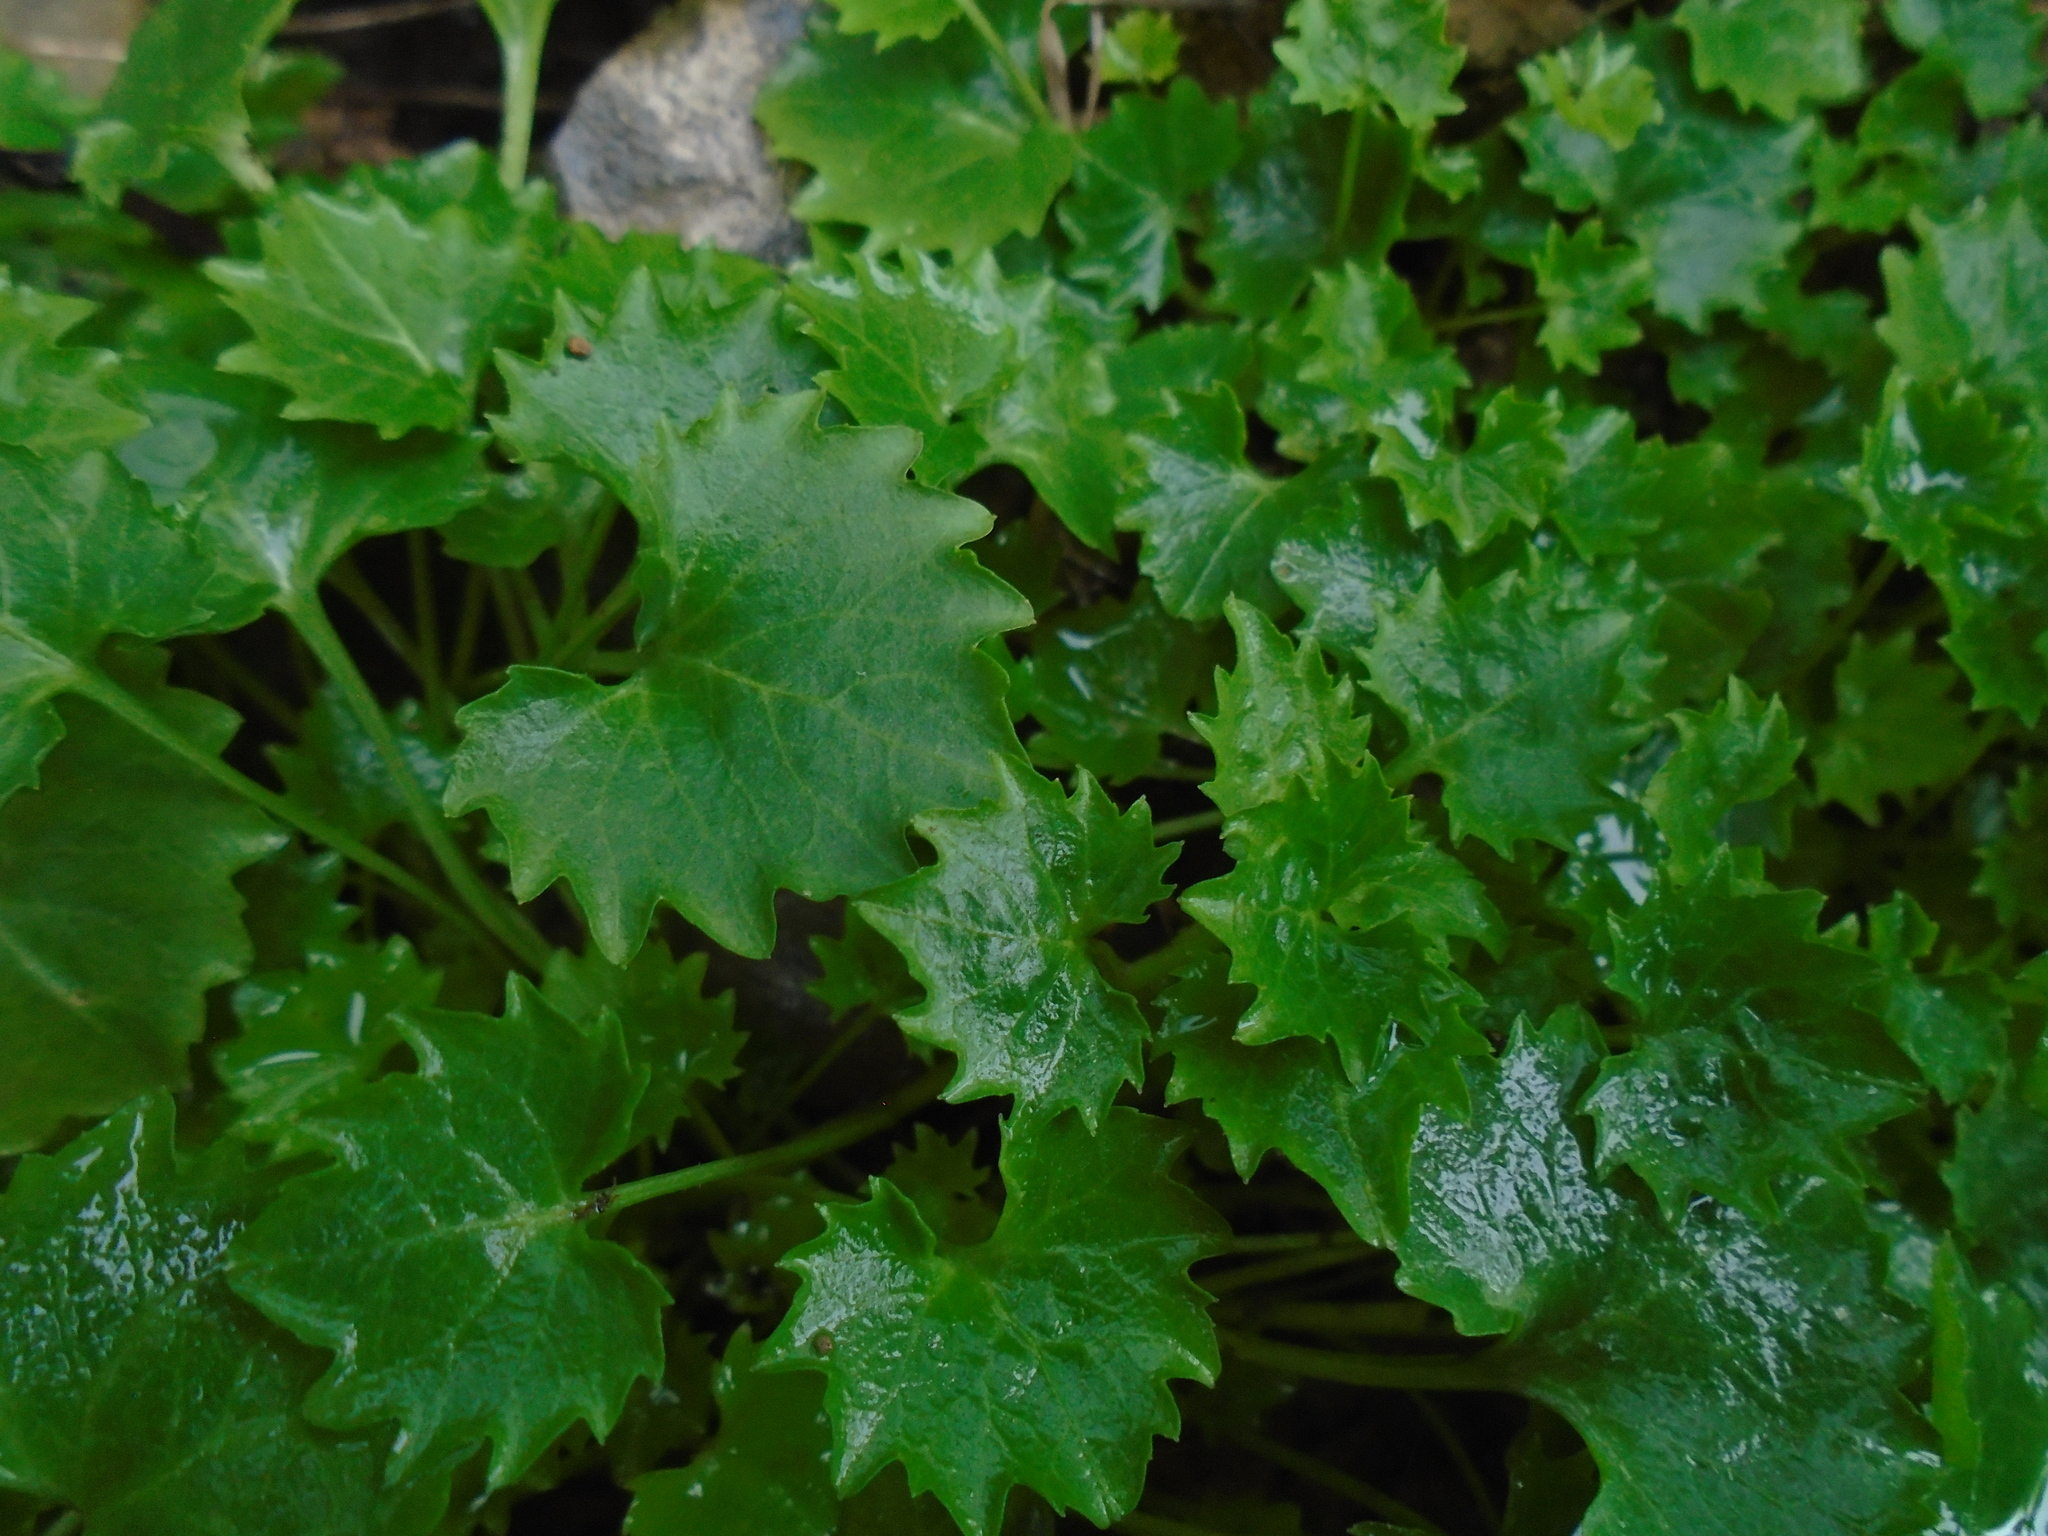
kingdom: Plantae
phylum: Tracheophyta
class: Magnoliopsida
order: Asterales
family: Campanulaceae
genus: Campanula
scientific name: Campanula portenschlagiana
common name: Adria bellflower
